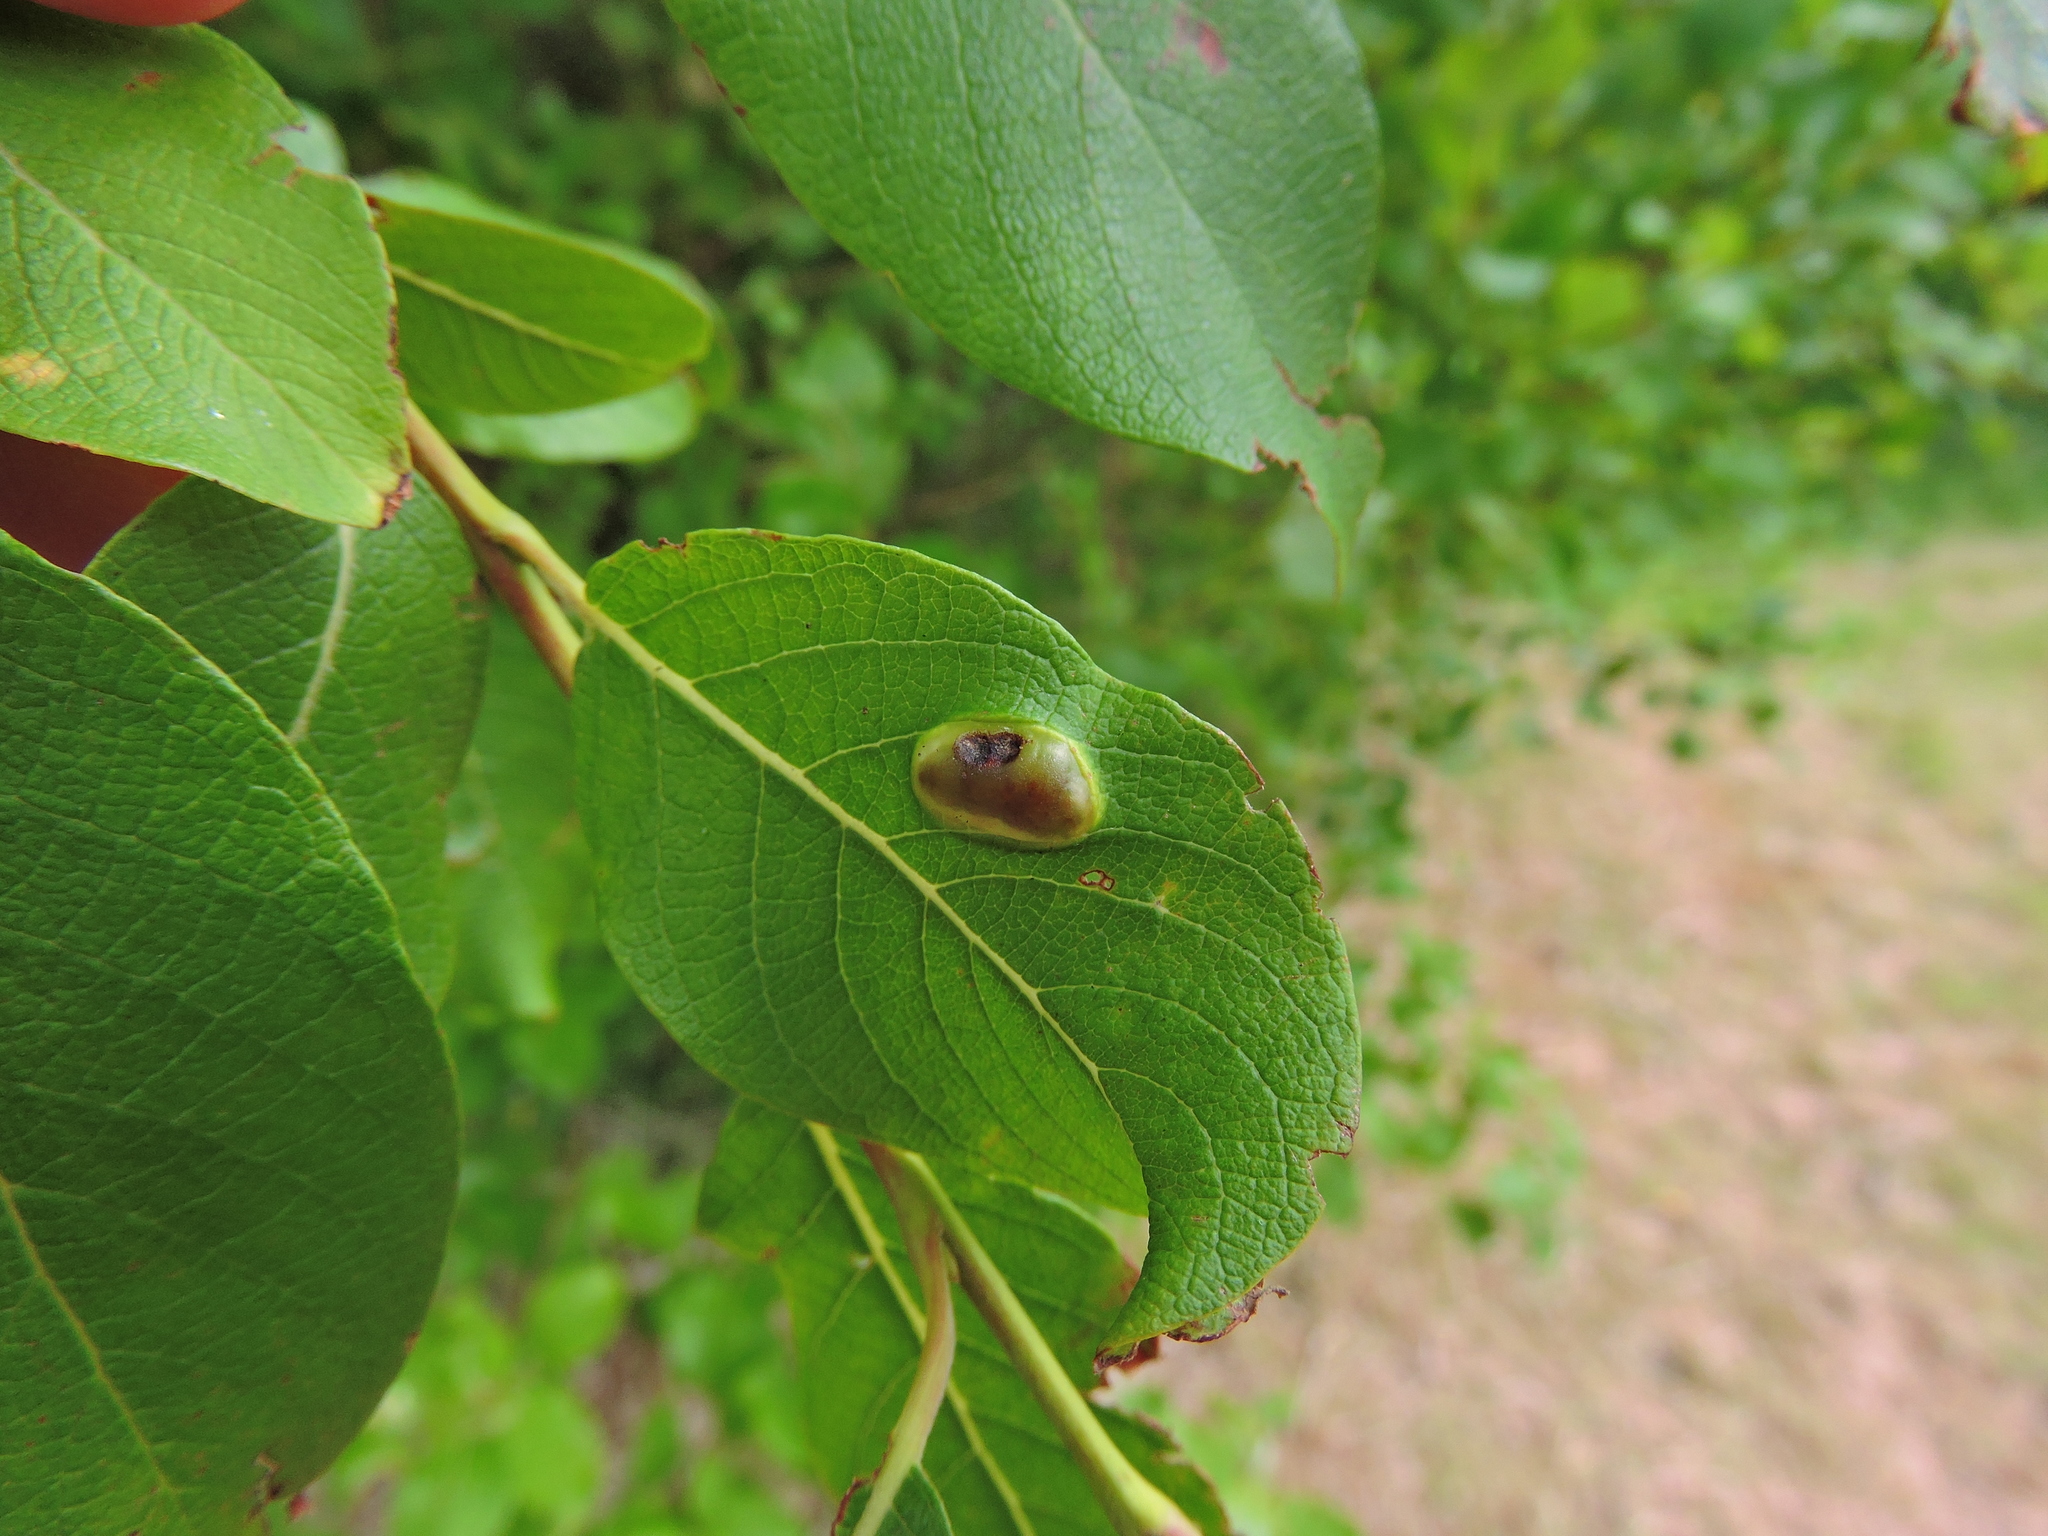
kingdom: Animalia
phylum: Arthropoda
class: Insecta
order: Hymenoptera
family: Tenthredinidae
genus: Pontania
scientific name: Pontania bridgmanii
